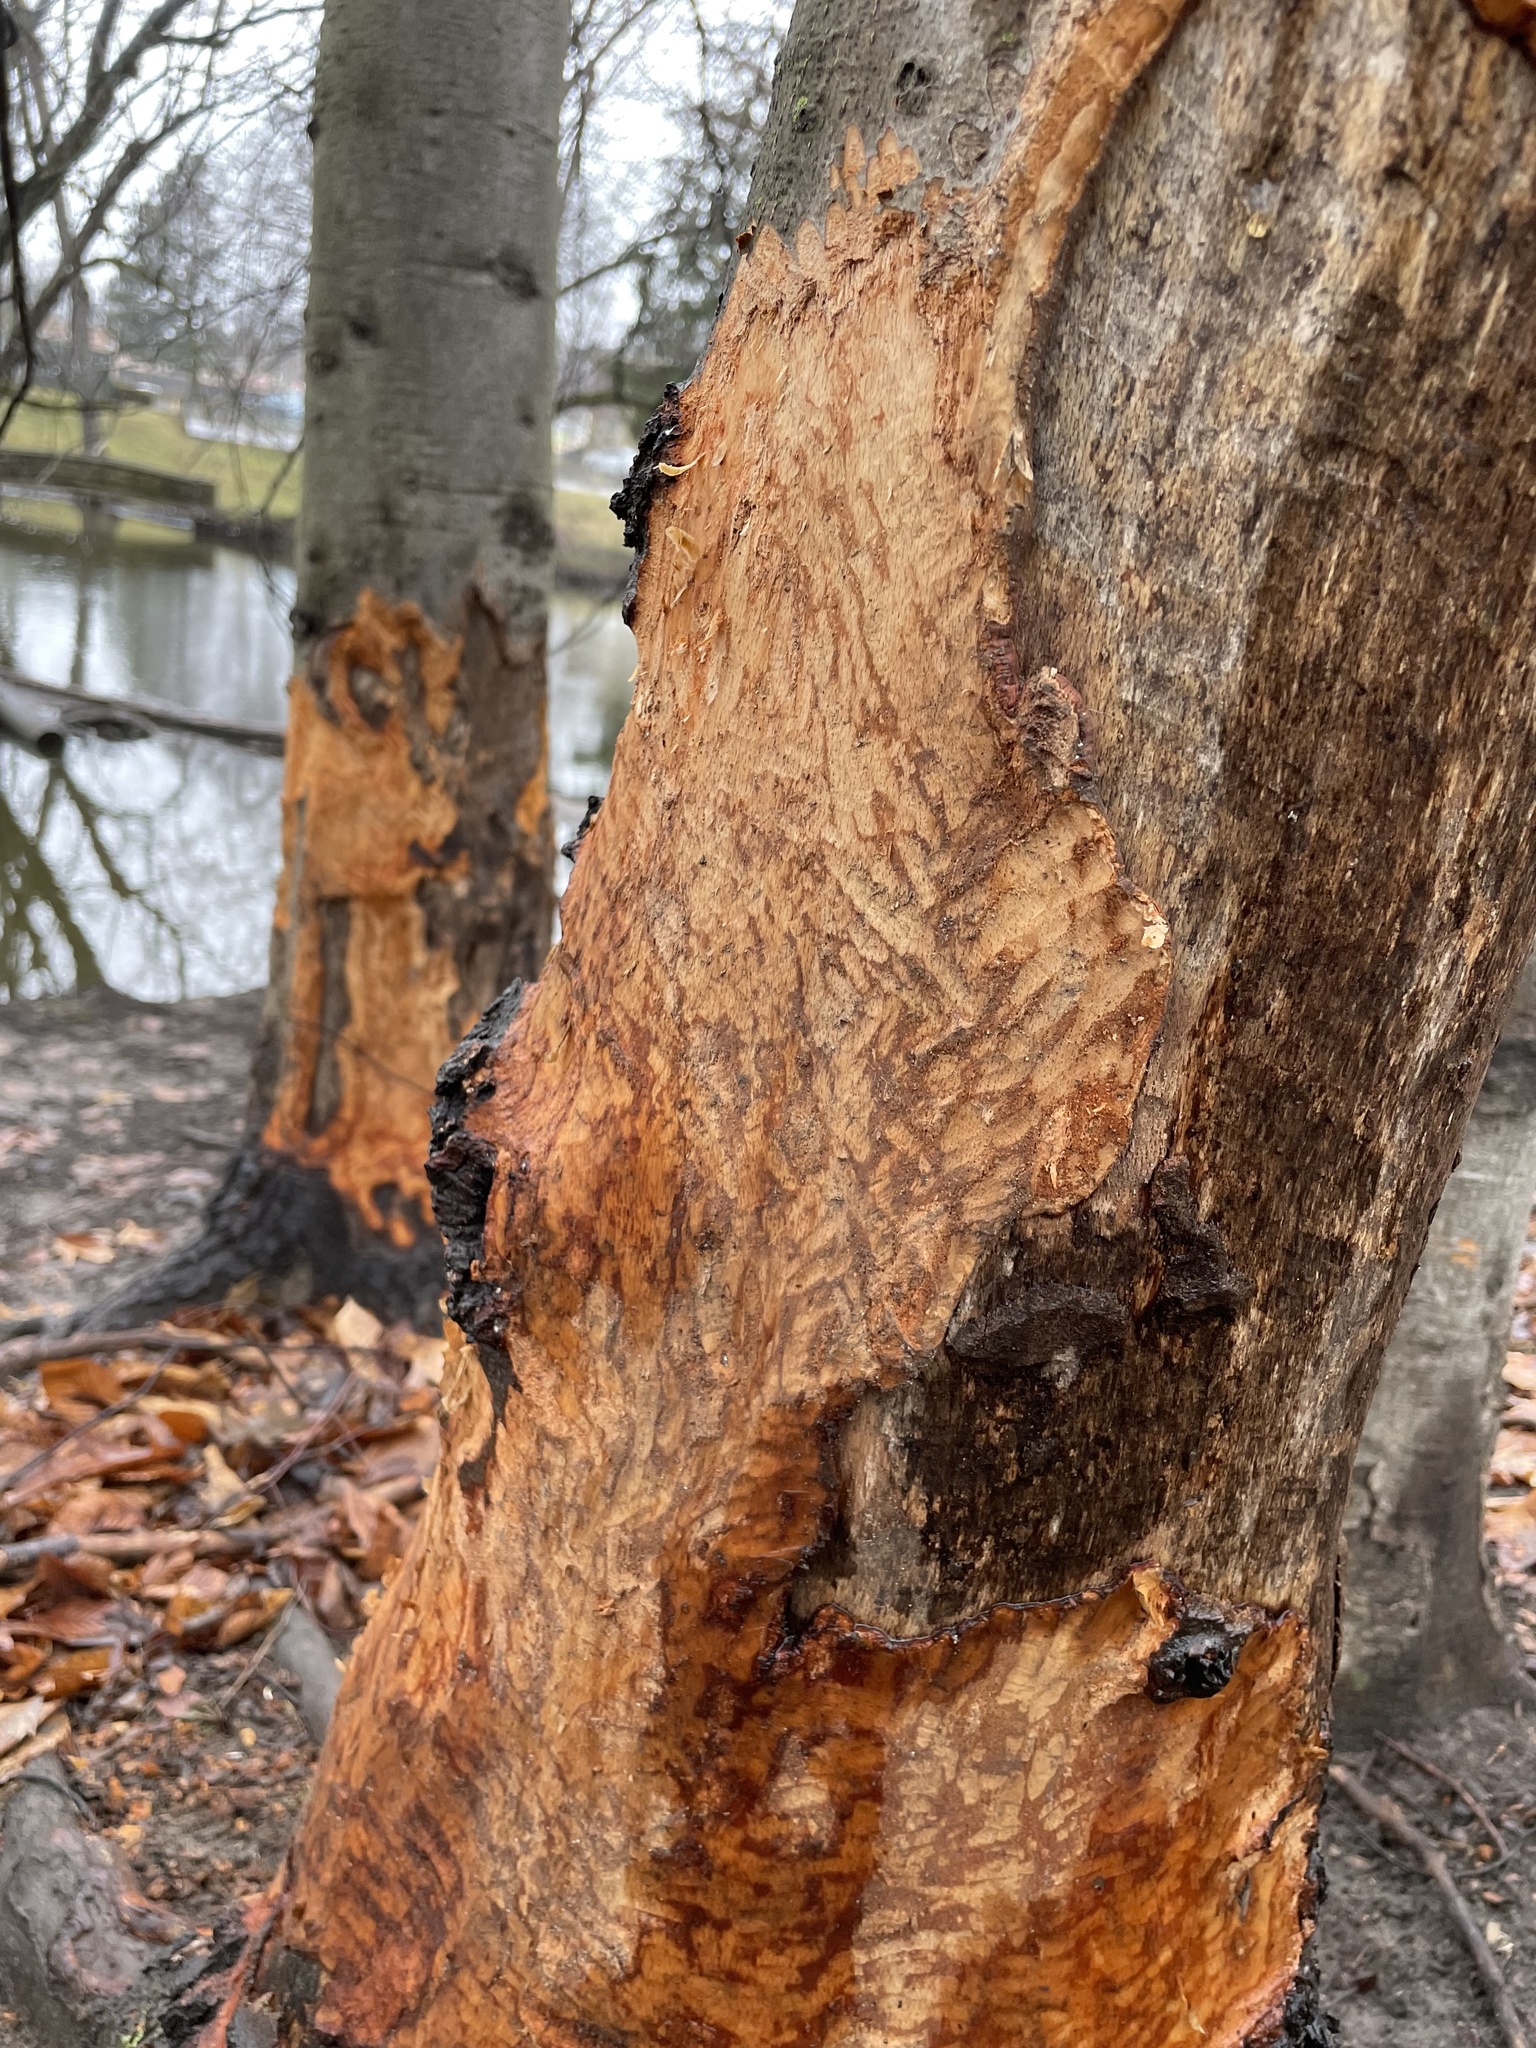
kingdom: Animalia
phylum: Chordata
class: Mammalia
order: Rodentia
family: Castoridae
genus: Castor
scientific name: Castor canadensis
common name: American beaver
